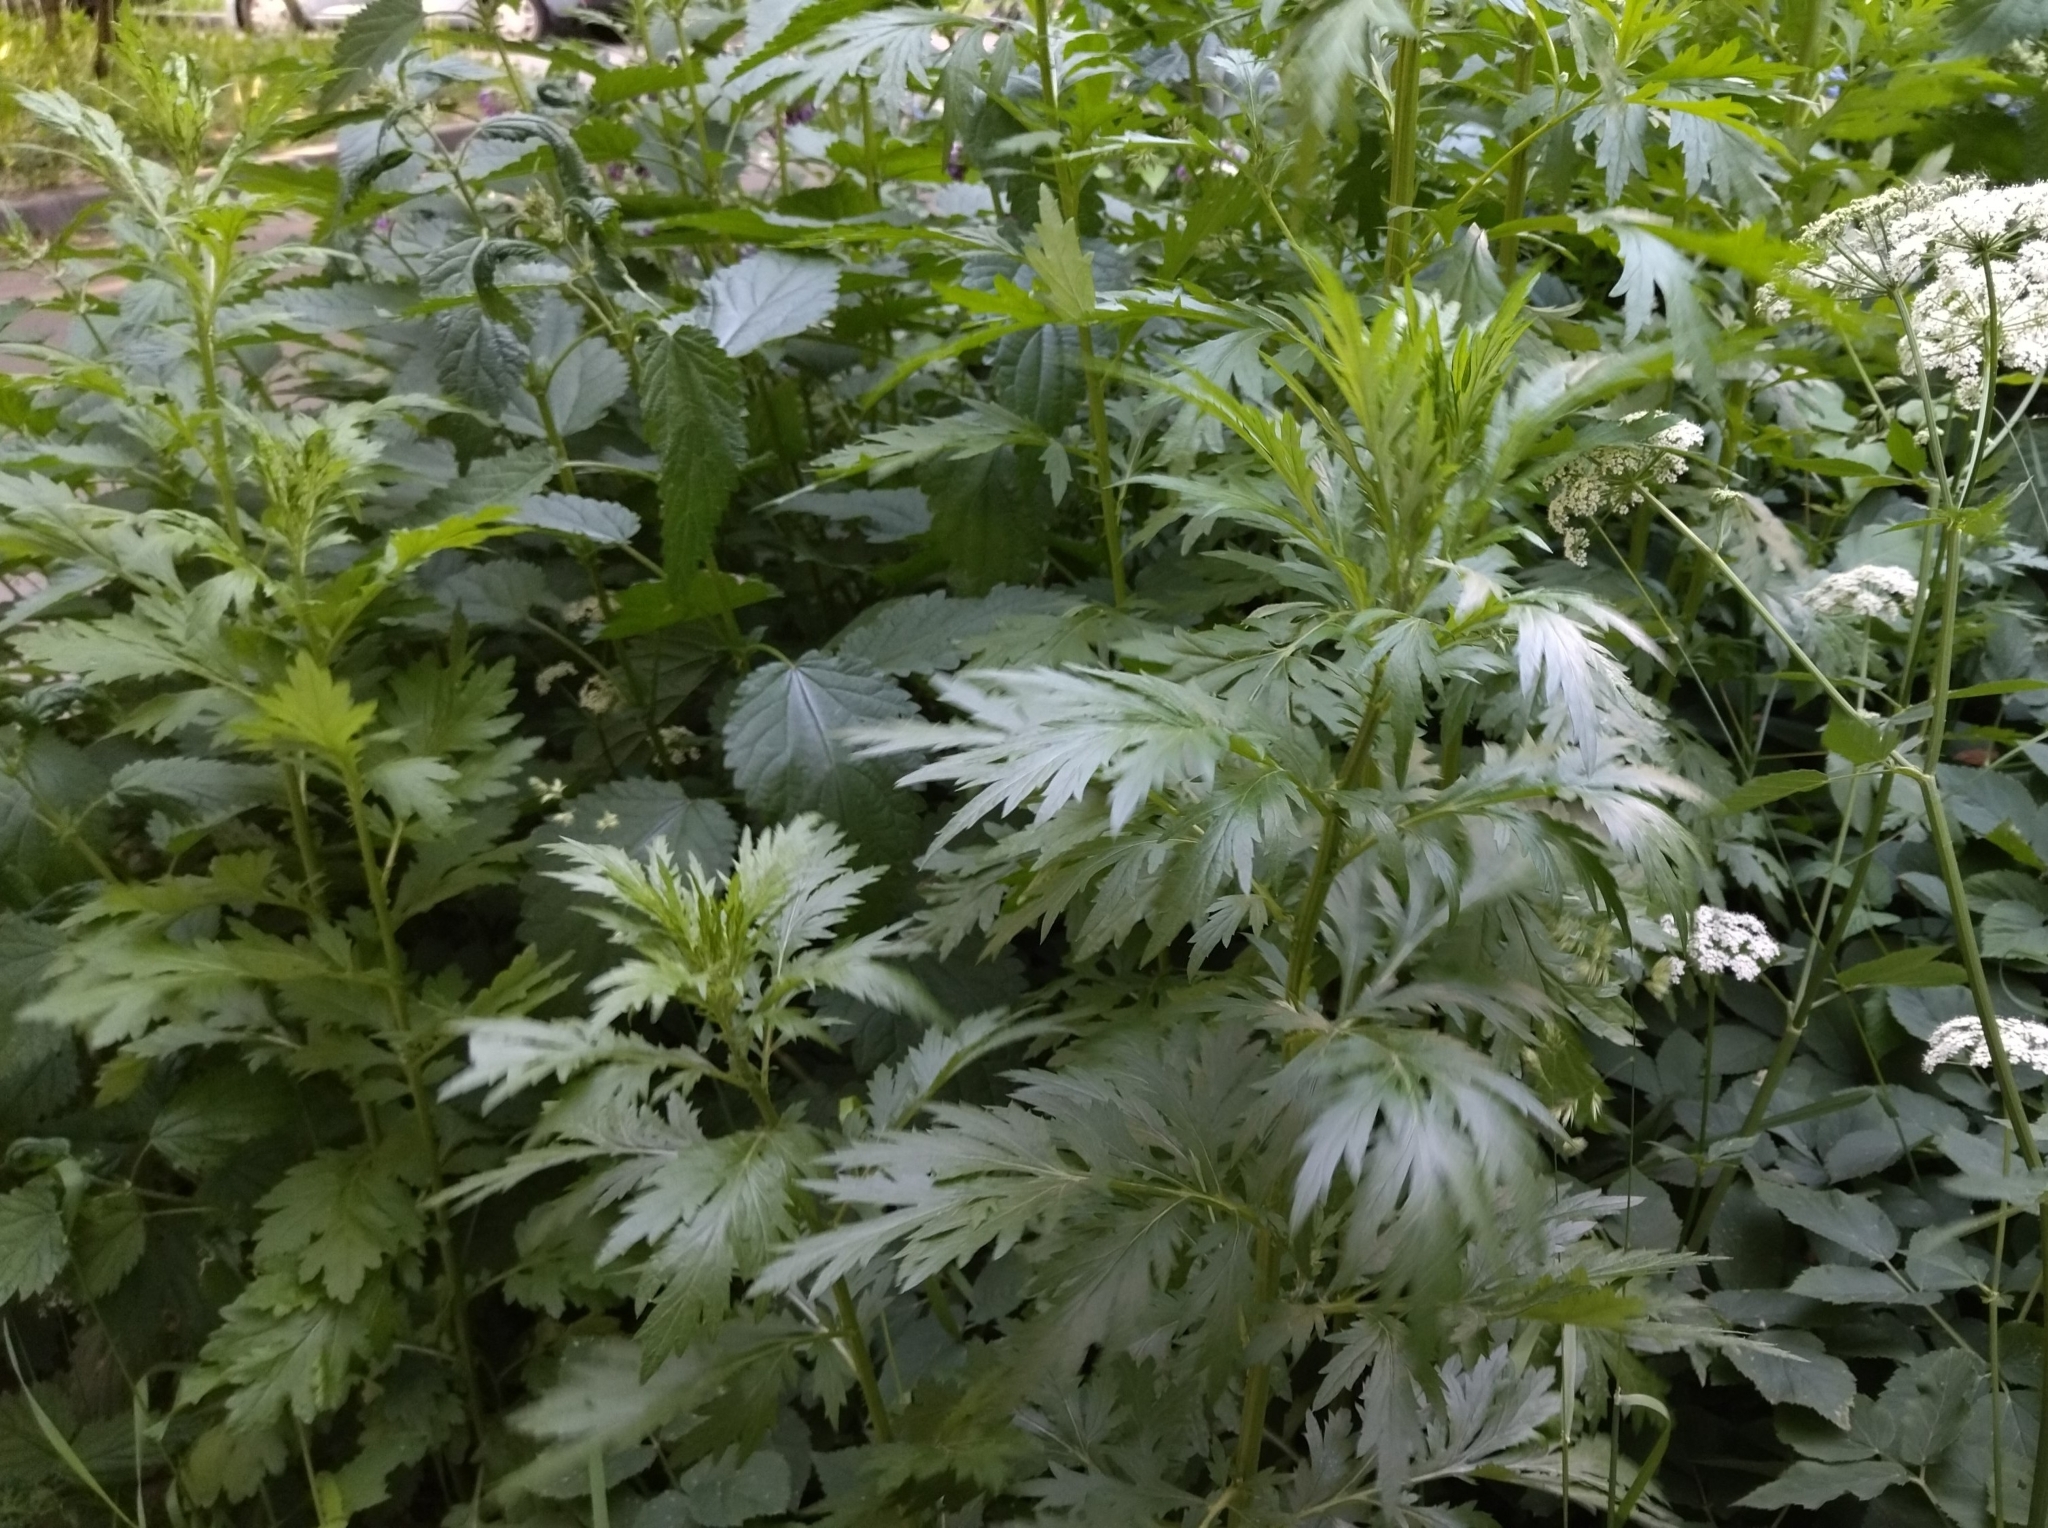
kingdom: Plantae
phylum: Tracheophyta
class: Magnoliopsida
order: Asterales
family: Asteraceae
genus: Artemisia
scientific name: Artemisia vulgaris
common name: Mugwort
